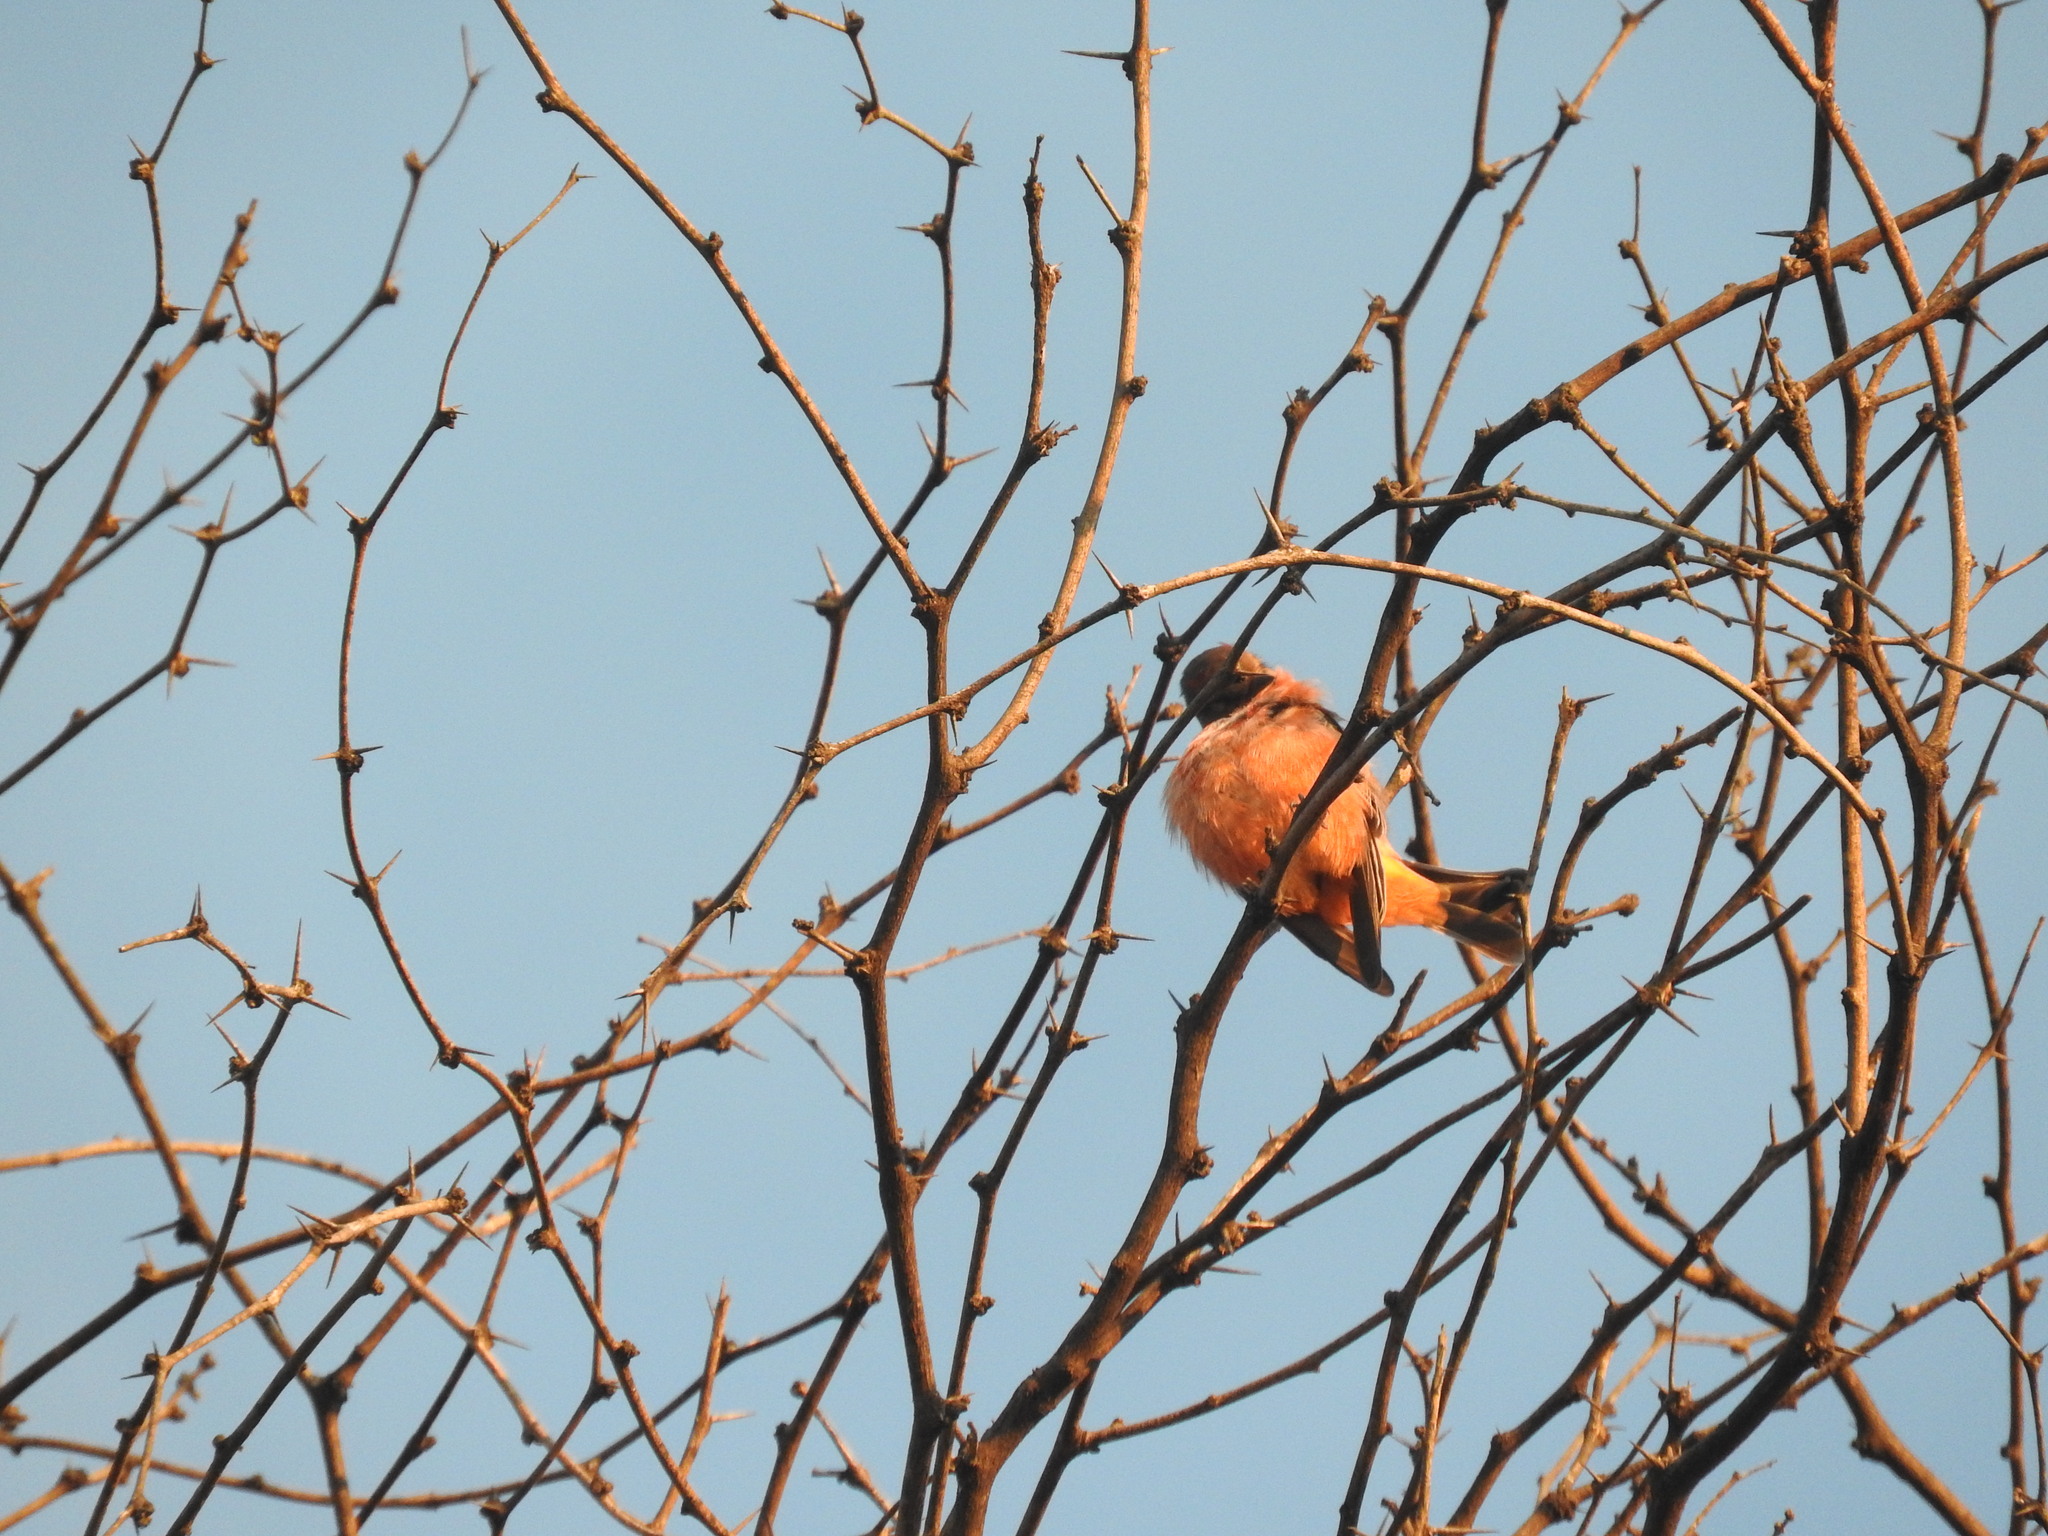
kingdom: Animalia
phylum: Chordata
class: Aves
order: Passeriformes
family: Tyrannidae
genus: Pyrocephalus
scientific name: Pyrocephalus rubinus
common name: Vermilion flycatcher
